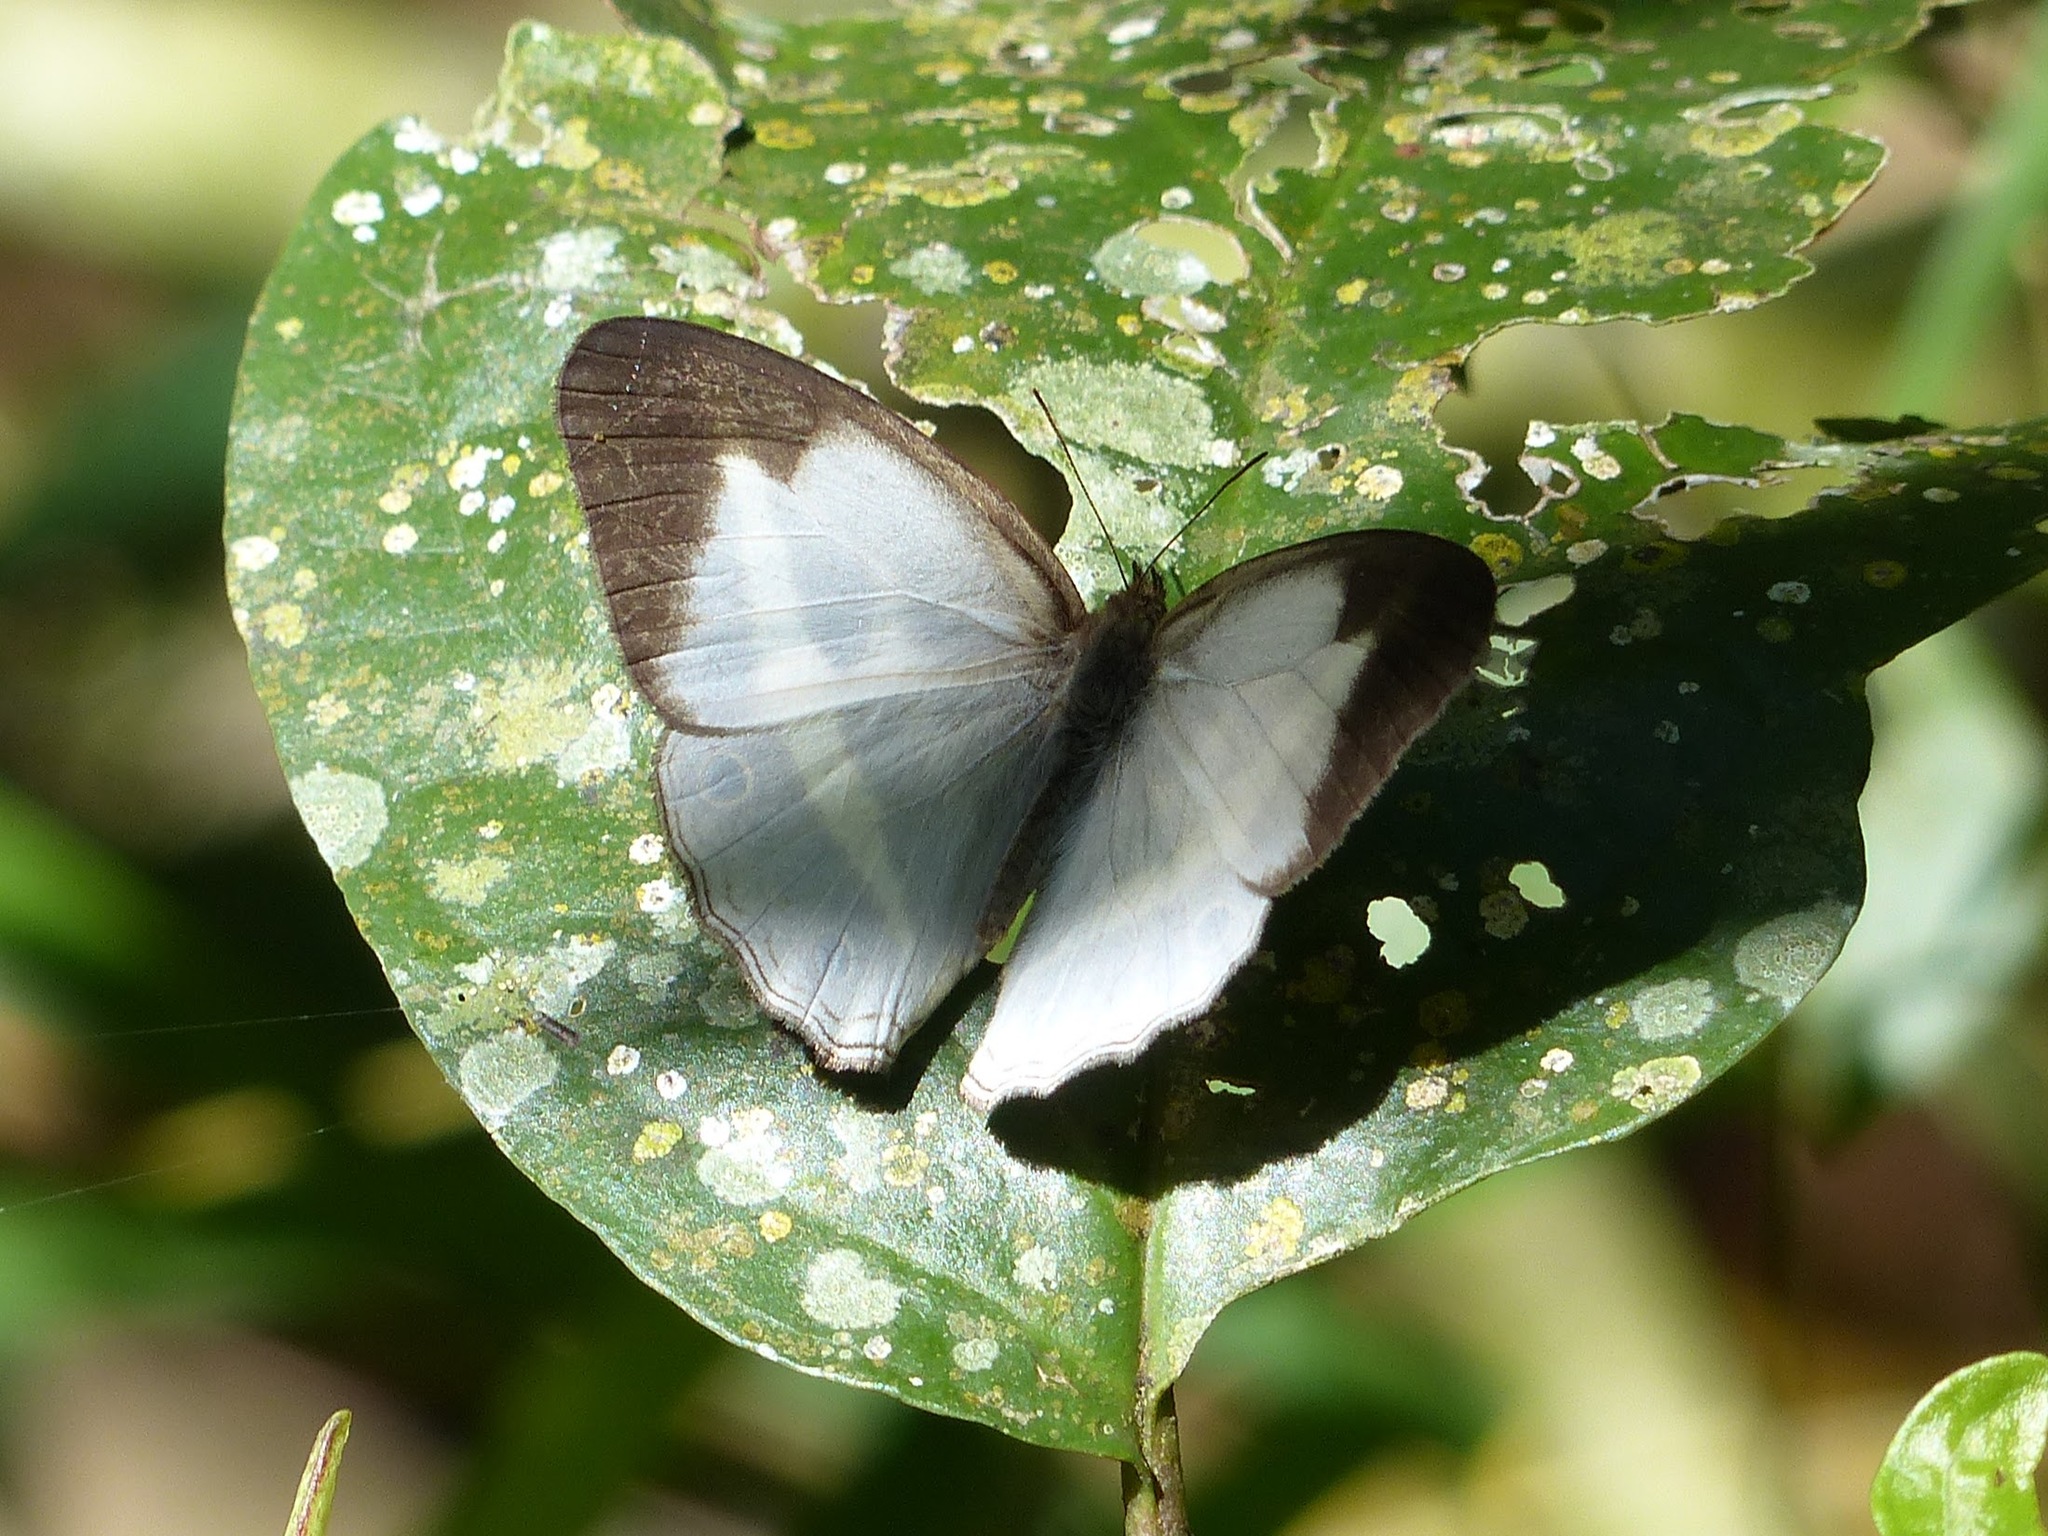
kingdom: Animalia
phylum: Arthropoda
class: Insecta
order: Lepidoptera
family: Nymphalidae
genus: Pareuptychia
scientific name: Pareuptychia summandosa
